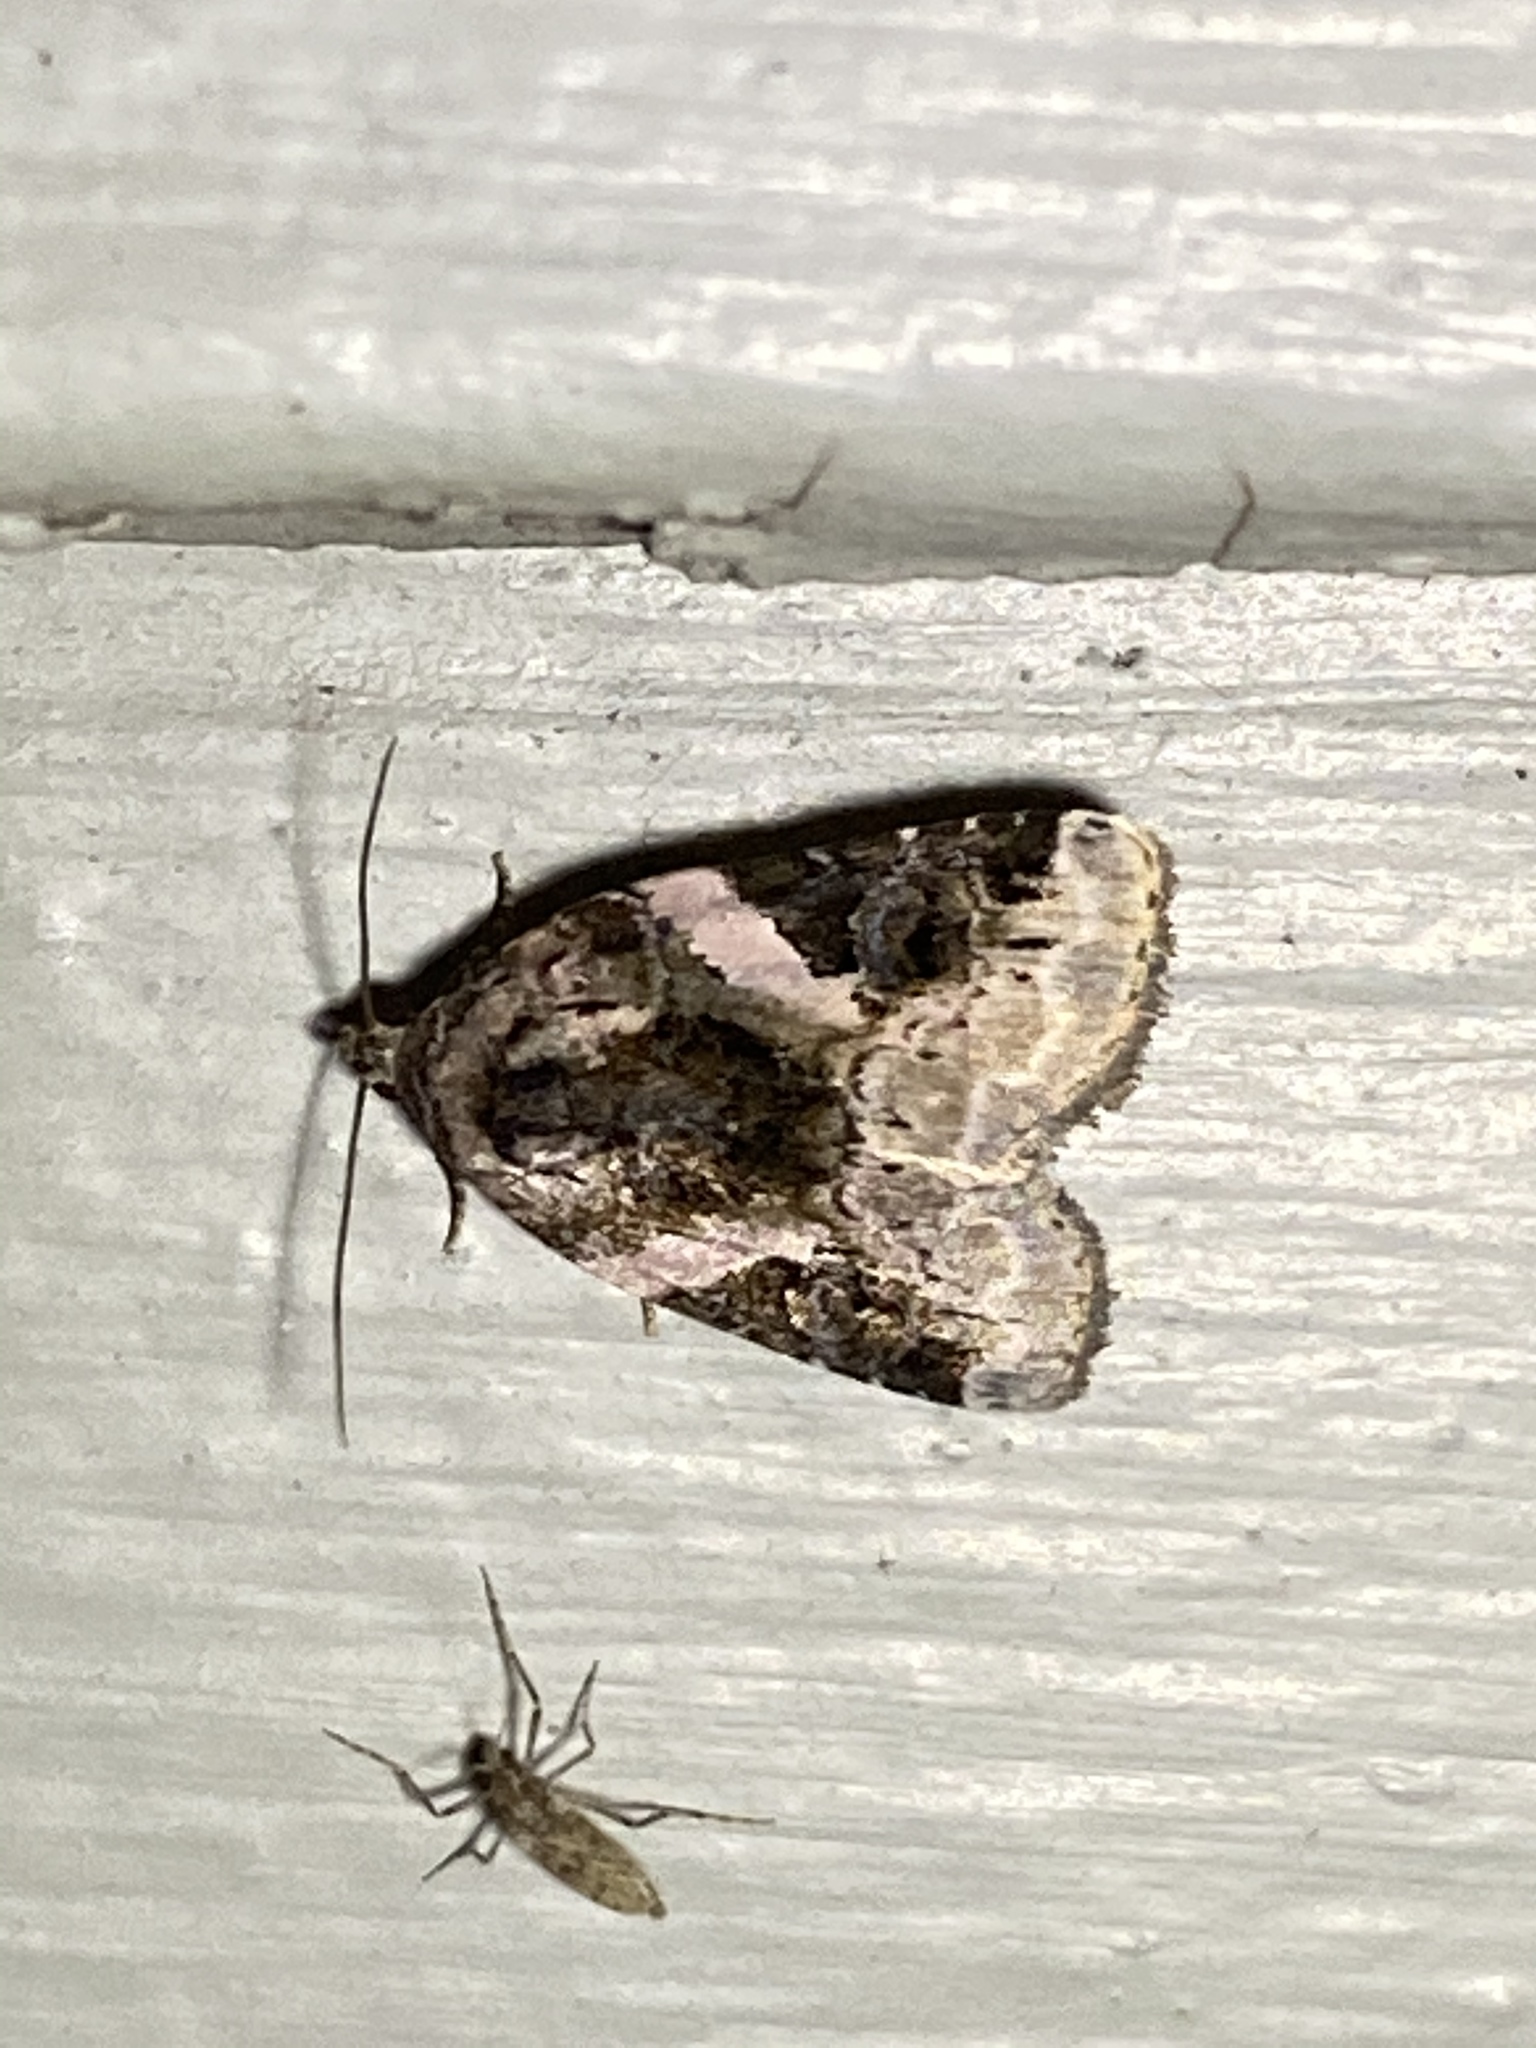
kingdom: Animalia
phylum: Arthropoda
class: Insecta
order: Lepidoptera
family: Noctuidae
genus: Pseudeustrotia
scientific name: Pseudeustrotia carneola
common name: Pink-barred lithacodia moth
